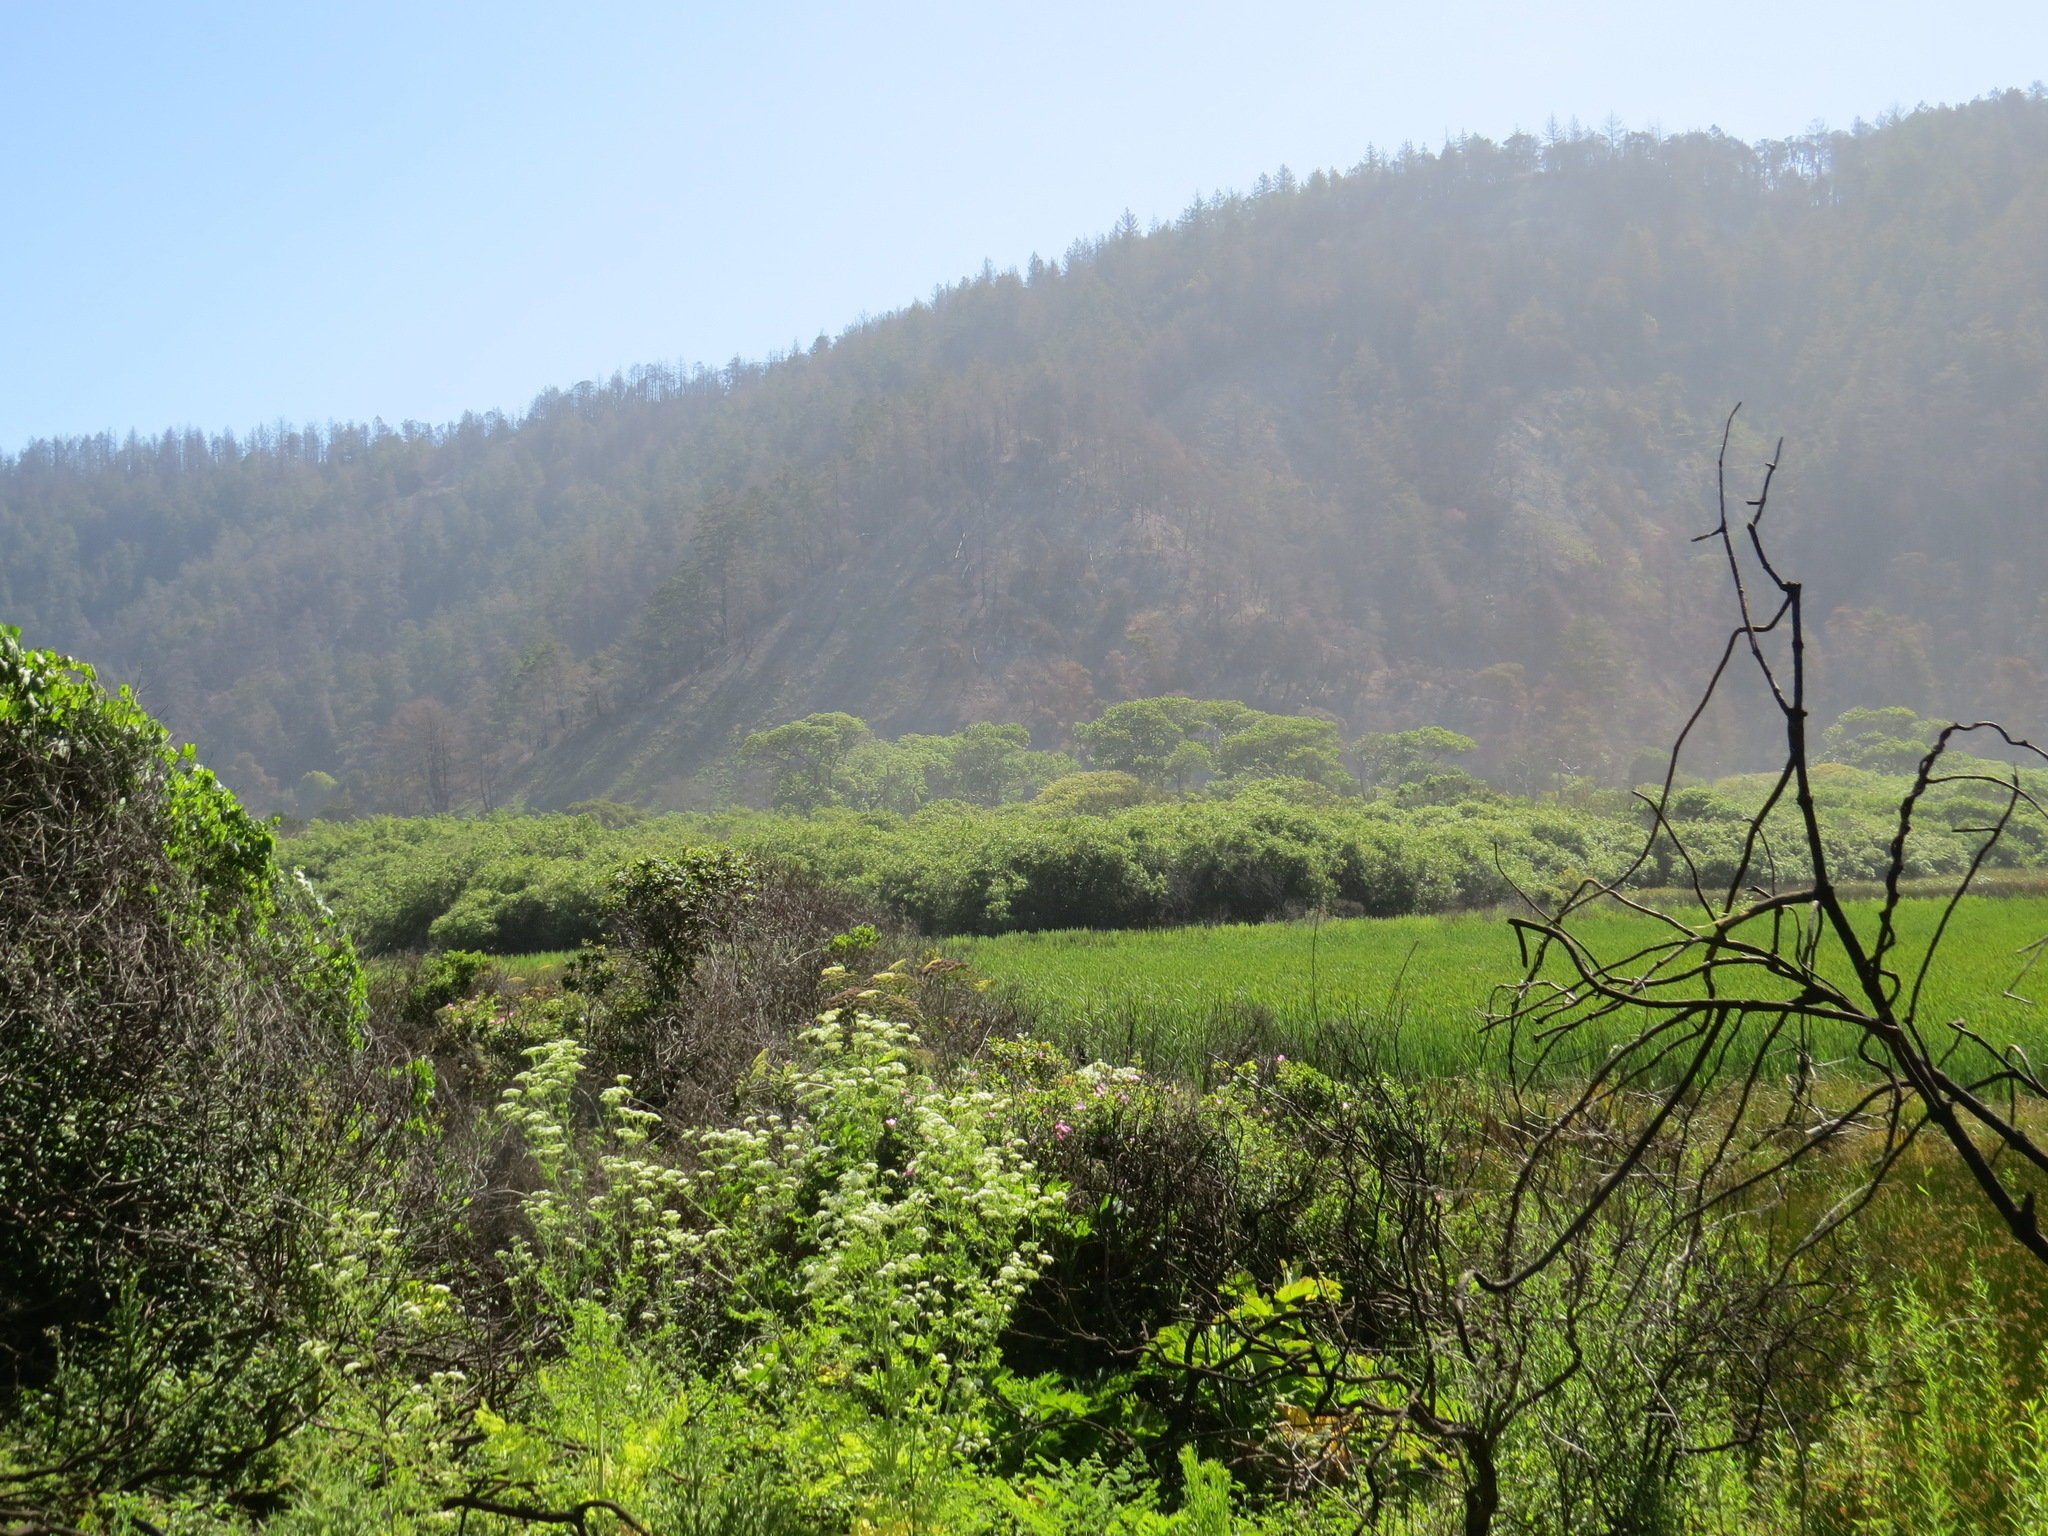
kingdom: Plantae
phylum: Tracheophyta
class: Magnoliopsida
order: Rosales
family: Rosaceae
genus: Rosa
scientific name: Rosa californica
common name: California rose
